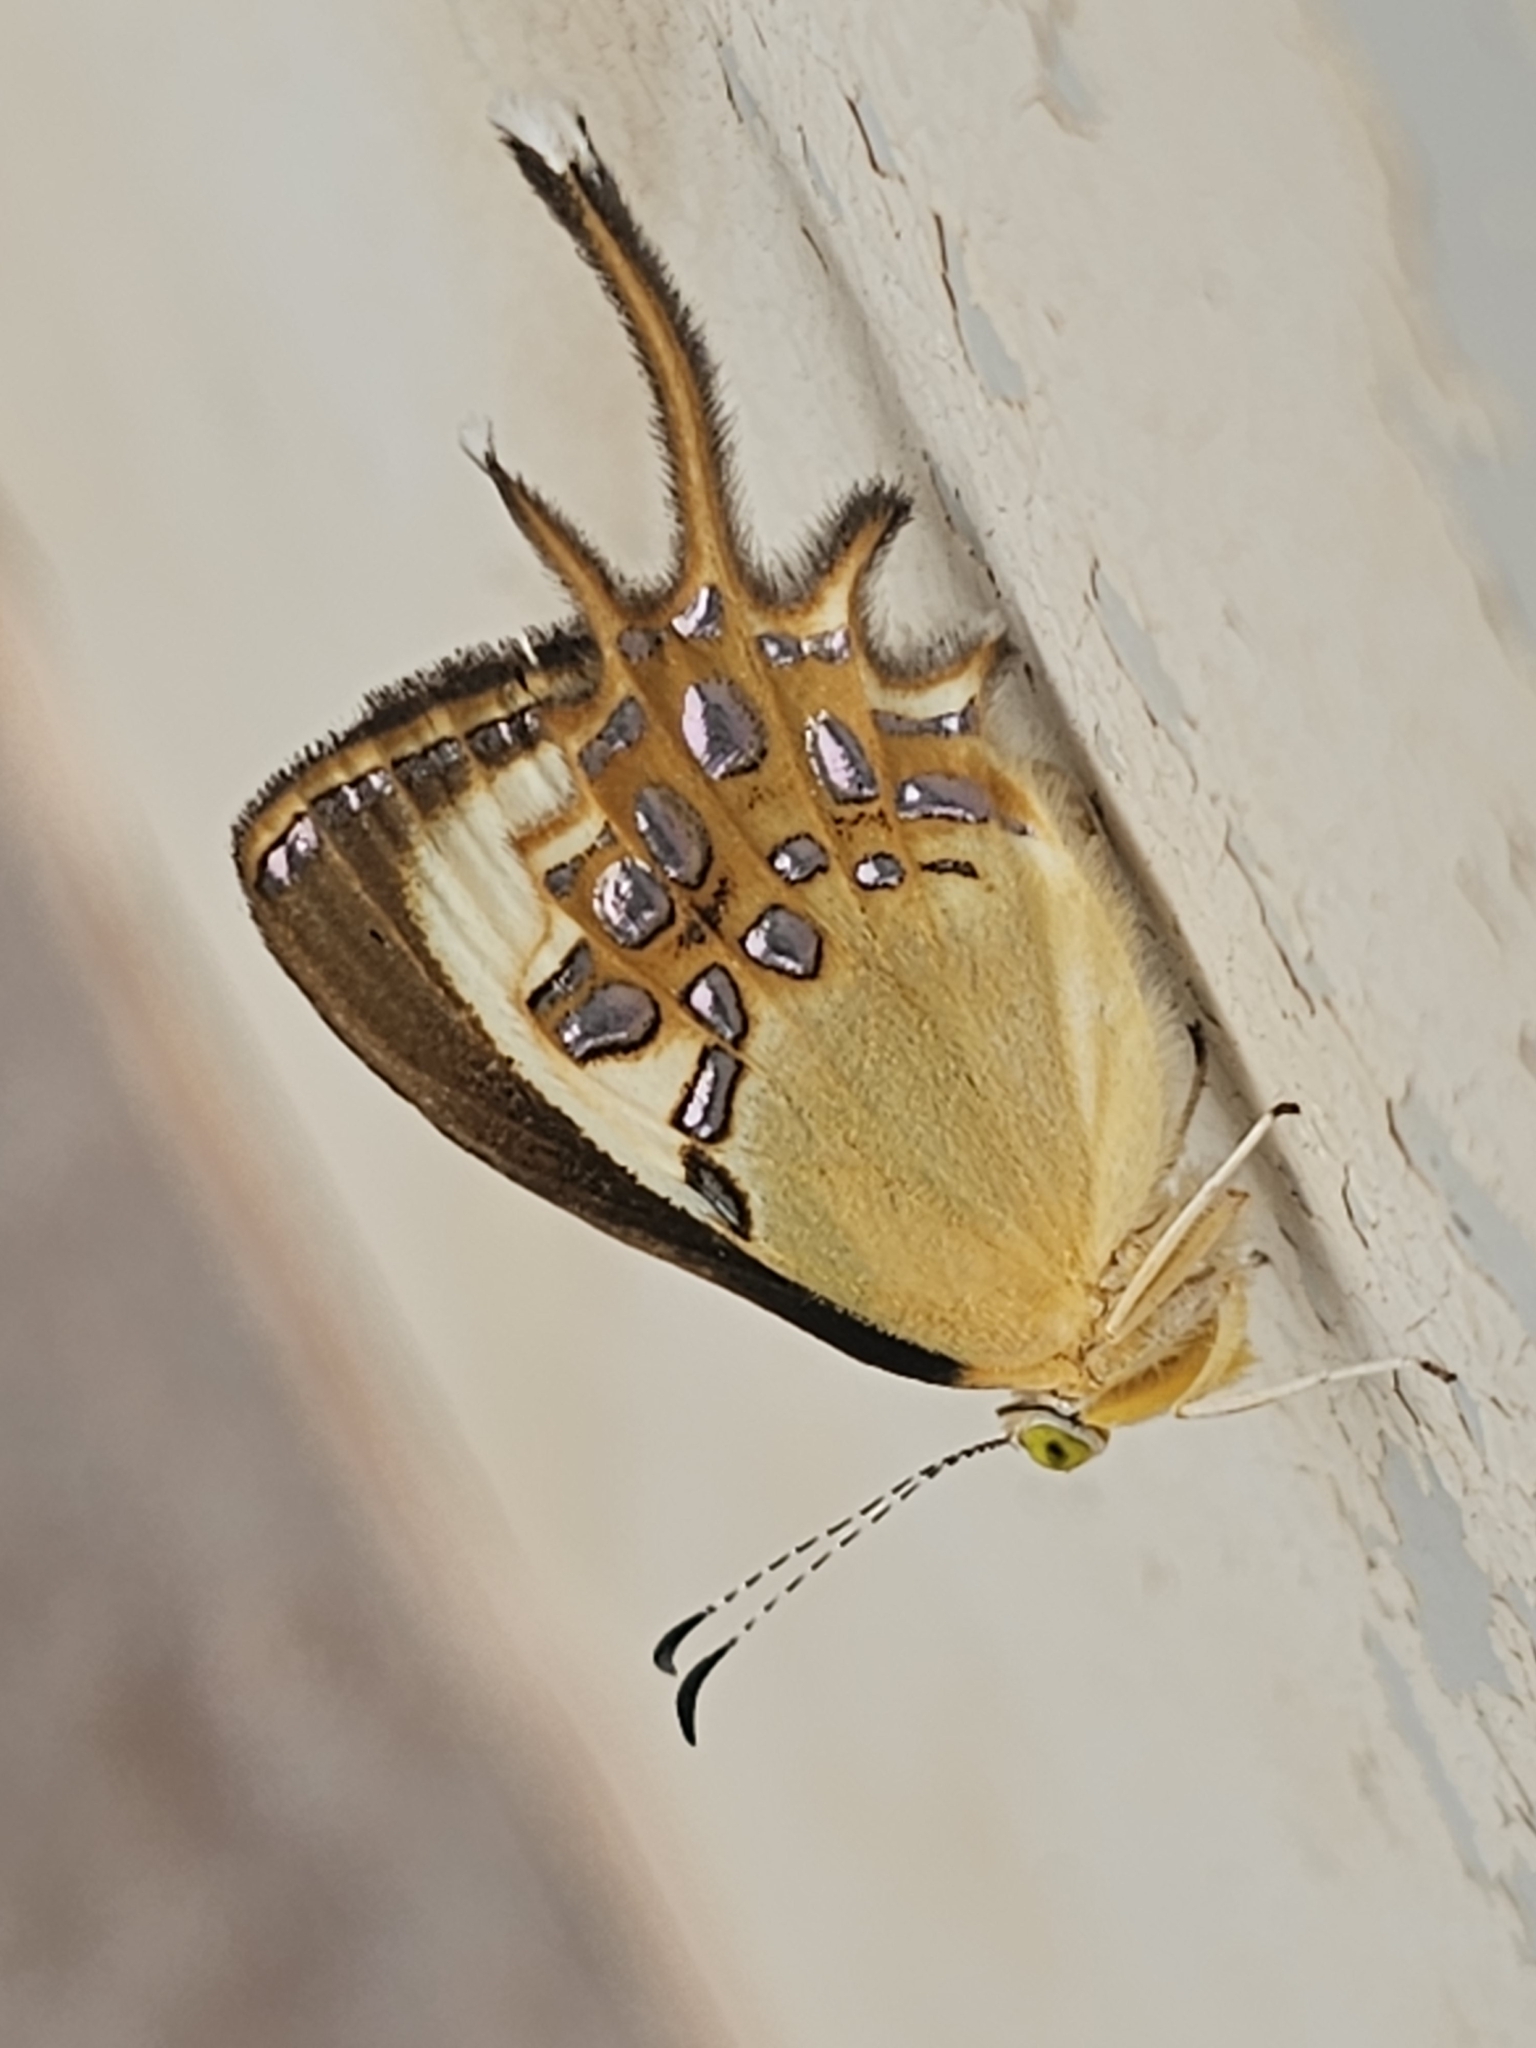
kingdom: Animalia
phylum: Arthropoda
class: Insecta
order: Lepidoptera
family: Riodinidae
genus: Helicopis
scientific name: Helicopis cupido
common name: Spangled cupid
